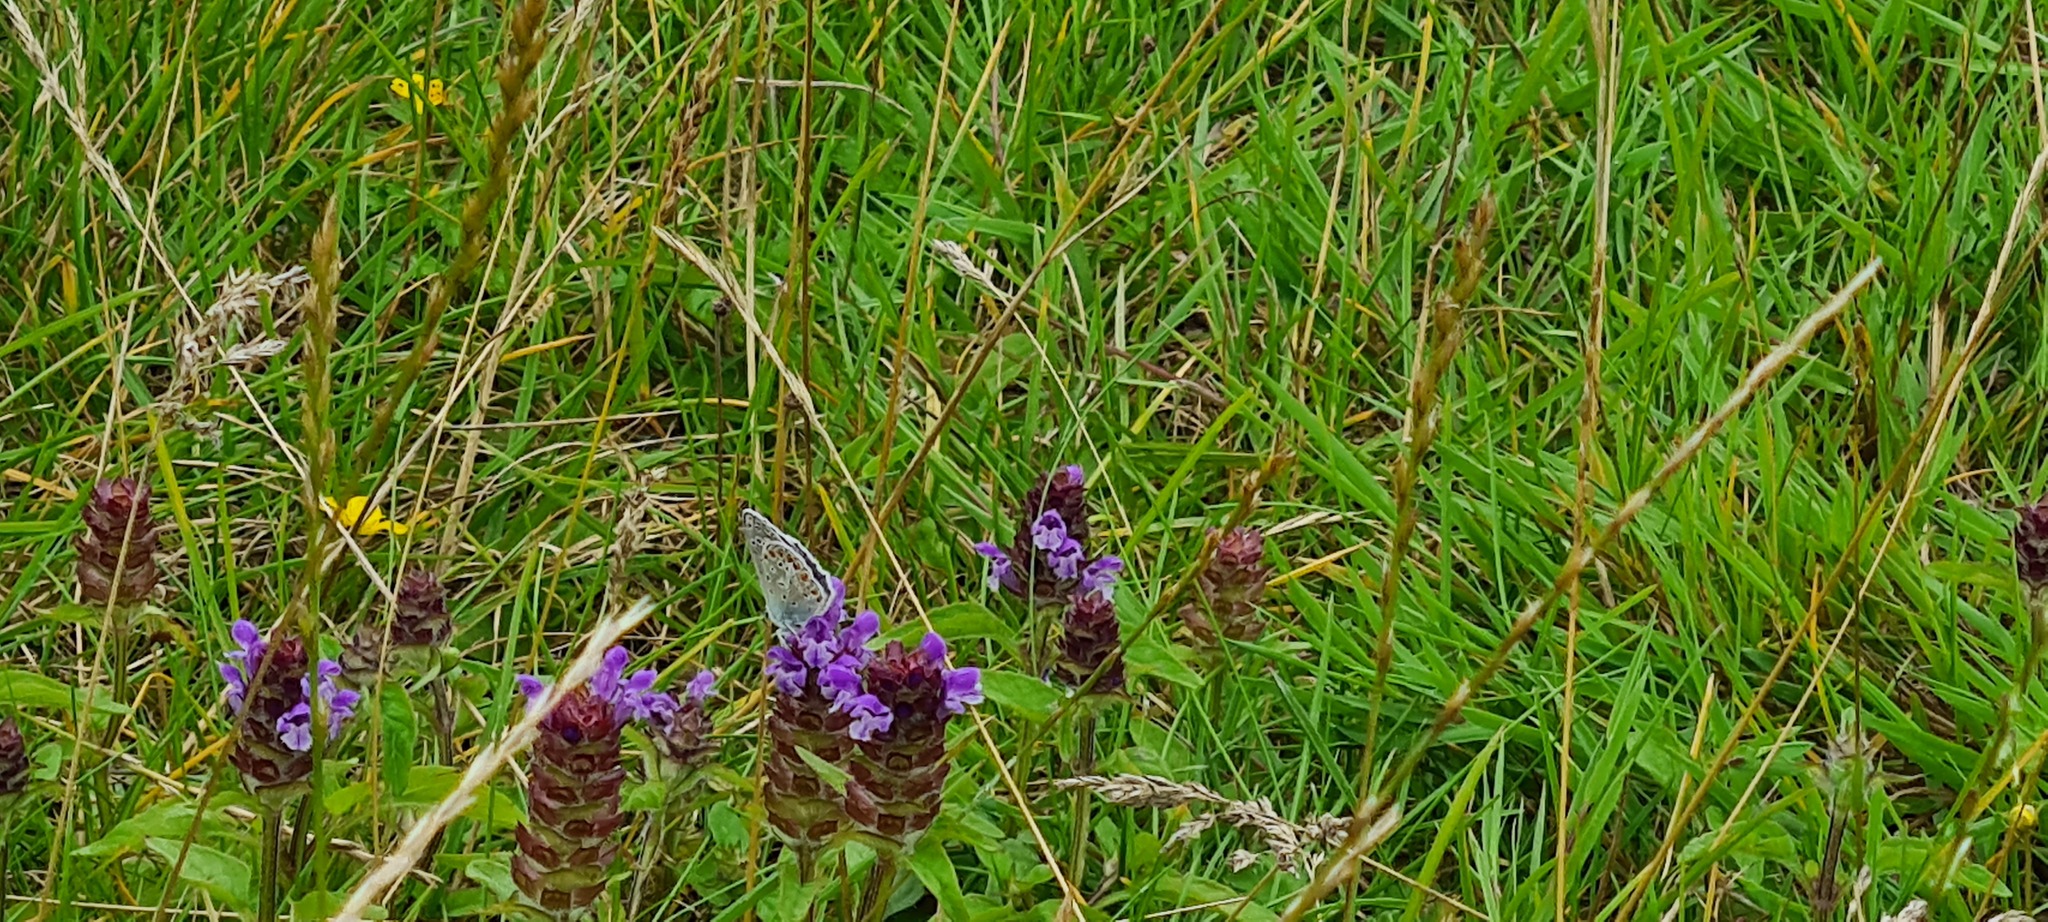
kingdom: Animalia
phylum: Arthropoda
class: Insecta
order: Lepidoptera
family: Lycaenidae
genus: Polyommatus
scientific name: Polyommatus icarus
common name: Common blue
